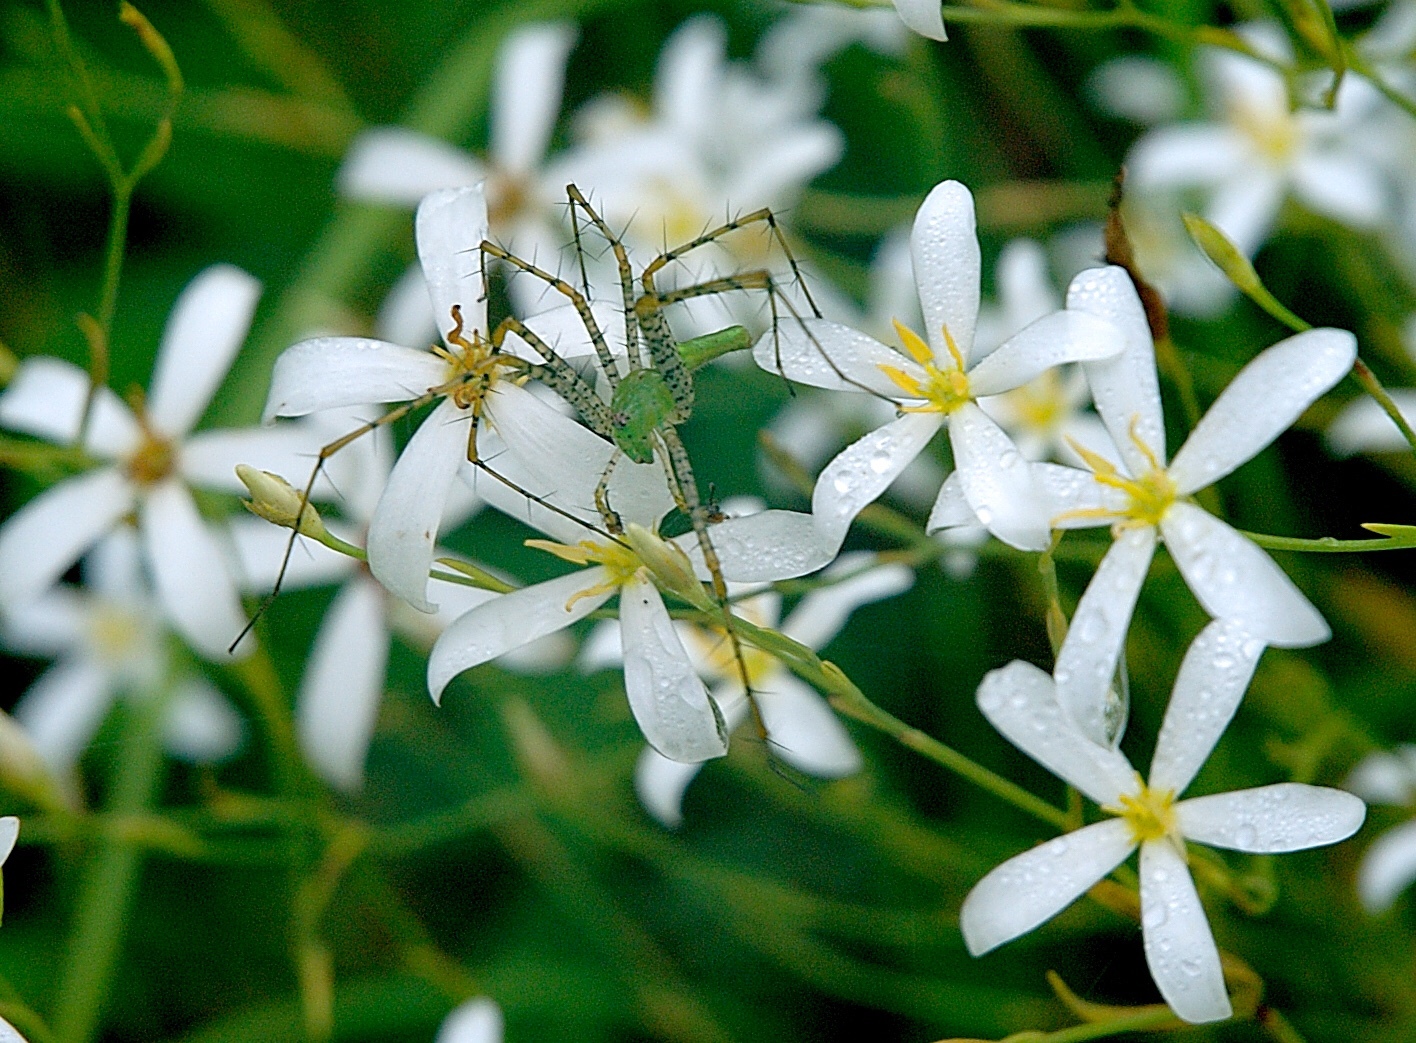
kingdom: Animalia
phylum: Arthropoda
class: Arachnida
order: Araneae
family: Oxyopidae
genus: Peucetia
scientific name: Peucetia viridans
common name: Lynx spiders
